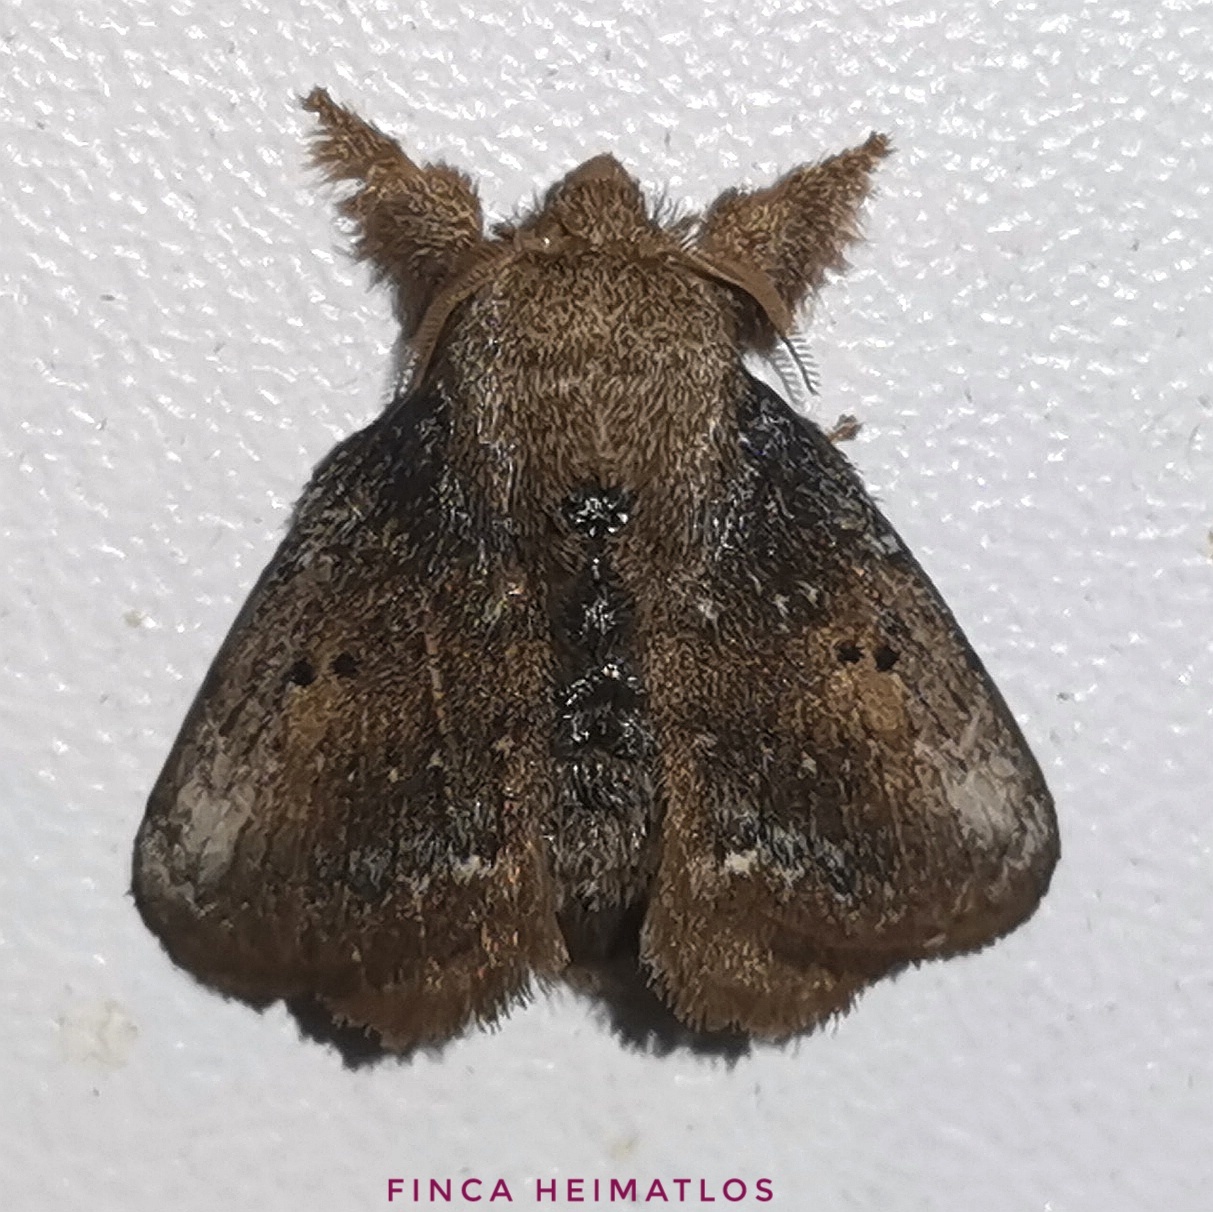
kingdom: Animalia
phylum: Arthropoda
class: Insecta
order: Lepidoptera
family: Lasiocampidae
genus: Euglyphis
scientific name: Euglyphis binuba
